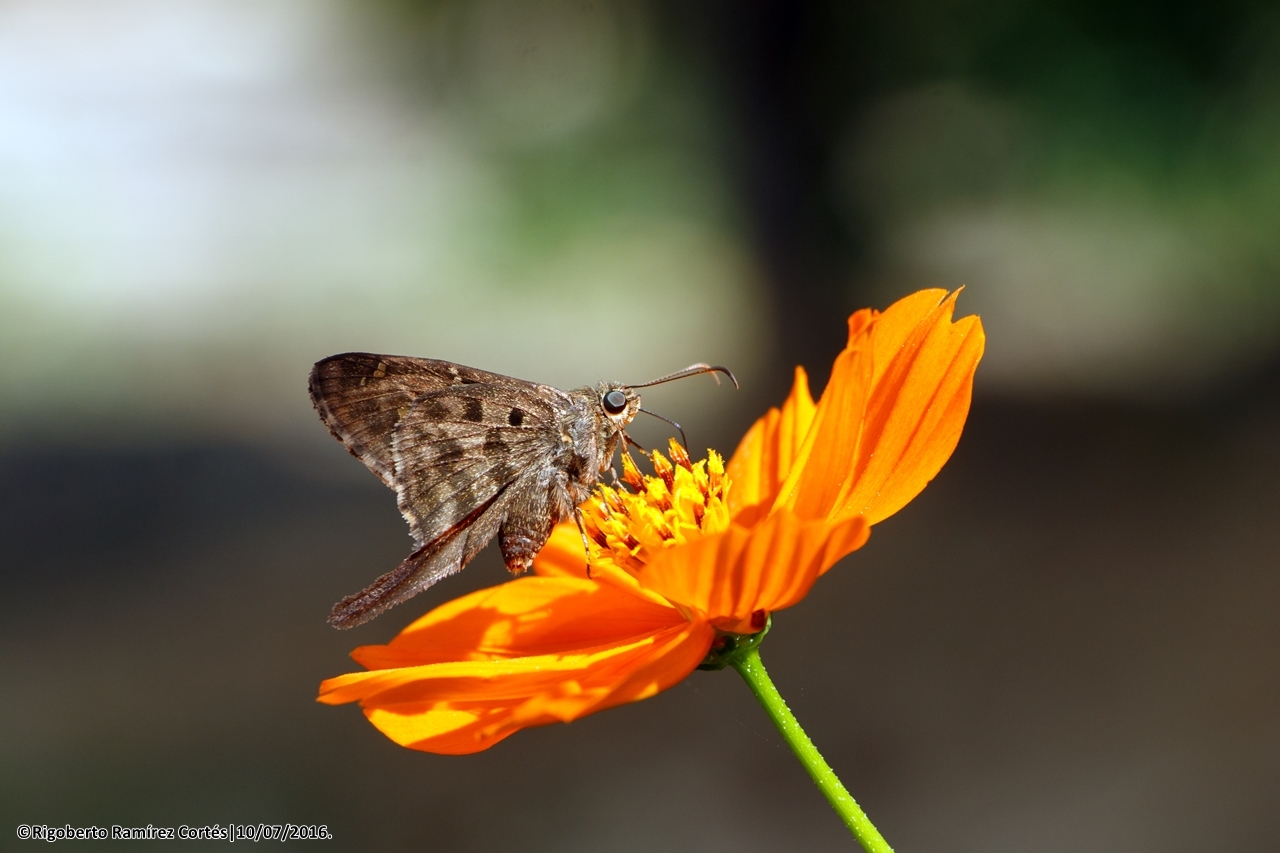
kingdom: Animalia
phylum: Arthropoda
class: Insecta
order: Lepidoptera
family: Hesperiidae
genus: Thorybes
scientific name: Thorybes
